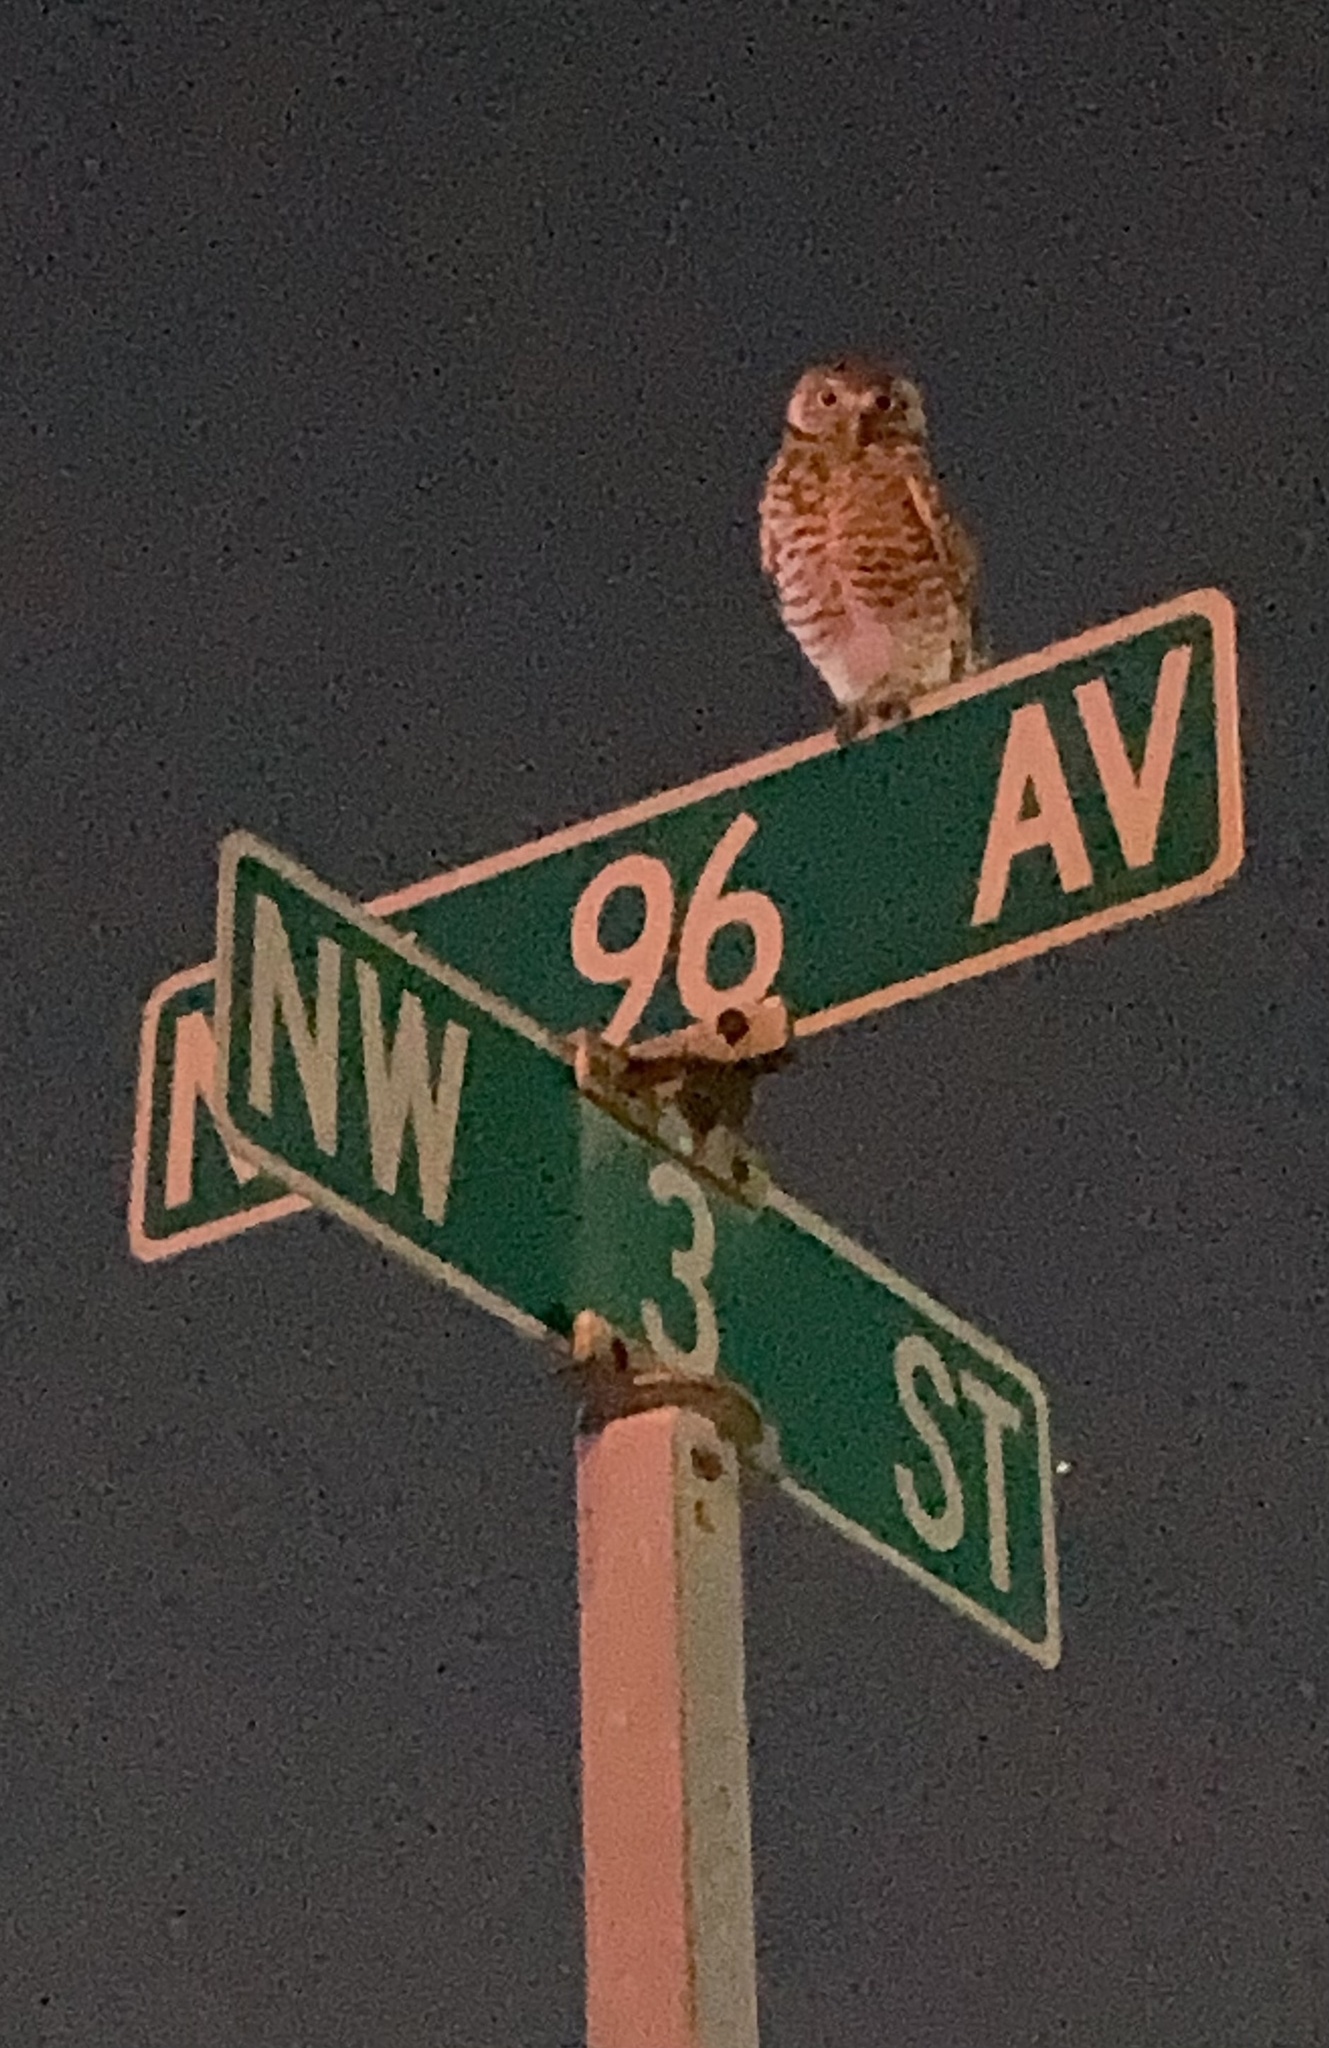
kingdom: Animalia
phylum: Chordata
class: Aves
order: Strigiformes
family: Strigidae
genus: Athene
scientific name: Athene cunicularia
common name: Burrowing owl
